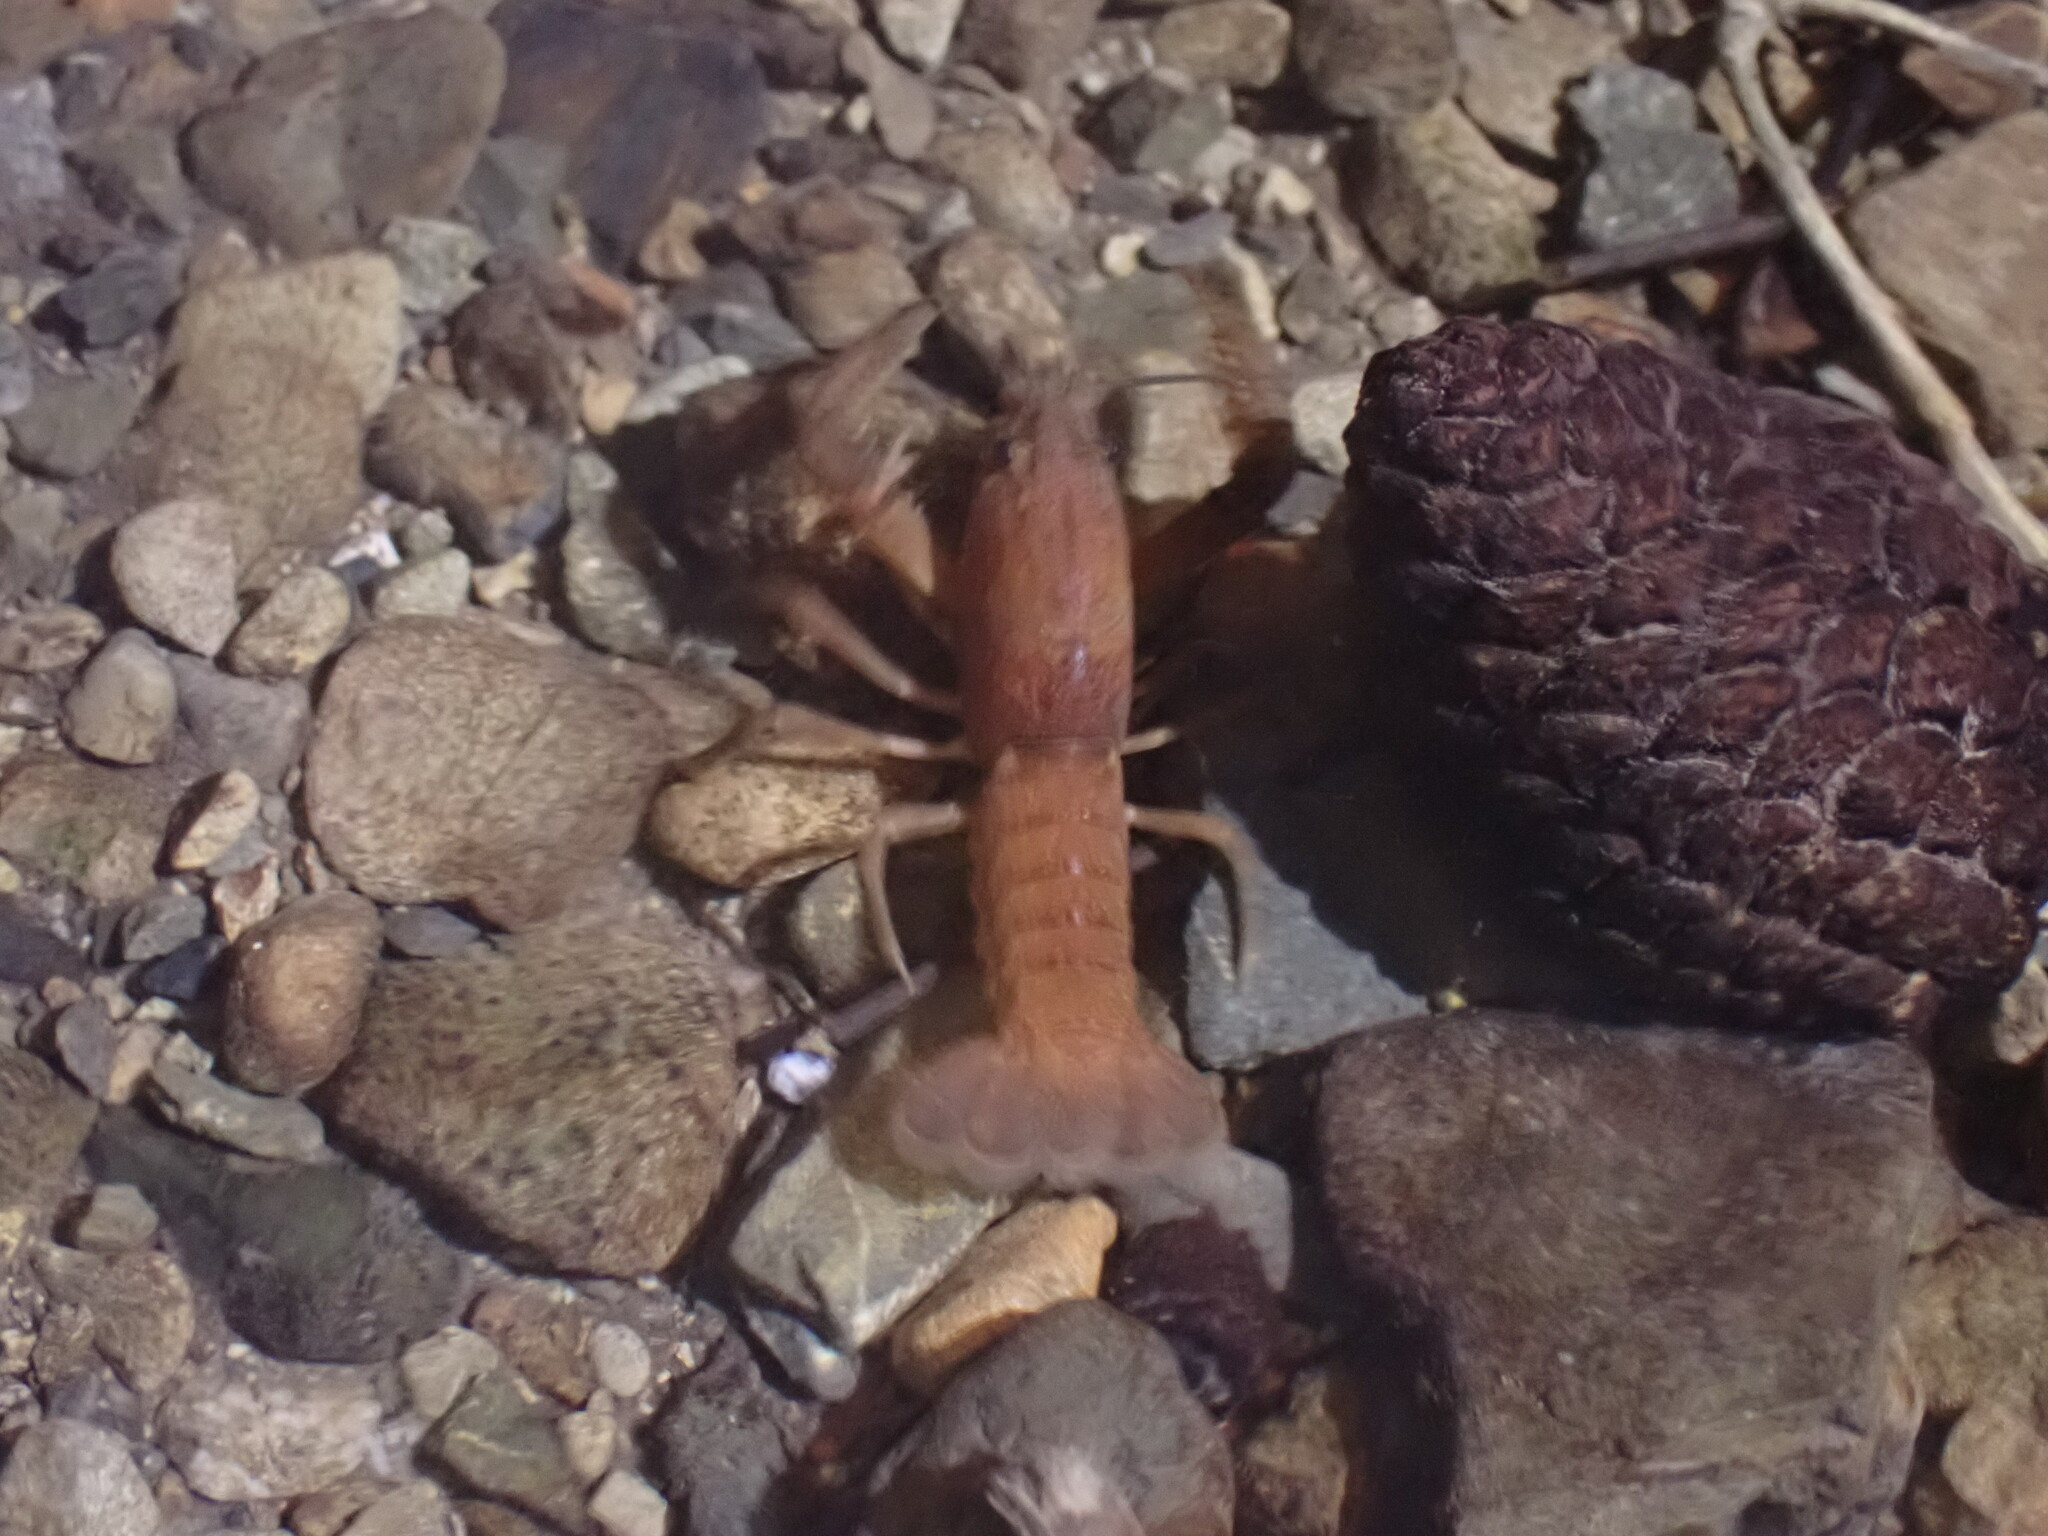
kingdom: Animalia
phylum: Arthropoda
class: Malacostraca
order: Decapoda
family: Parastacidae
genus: Paranephrops
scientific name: Paranephrops planifrons
